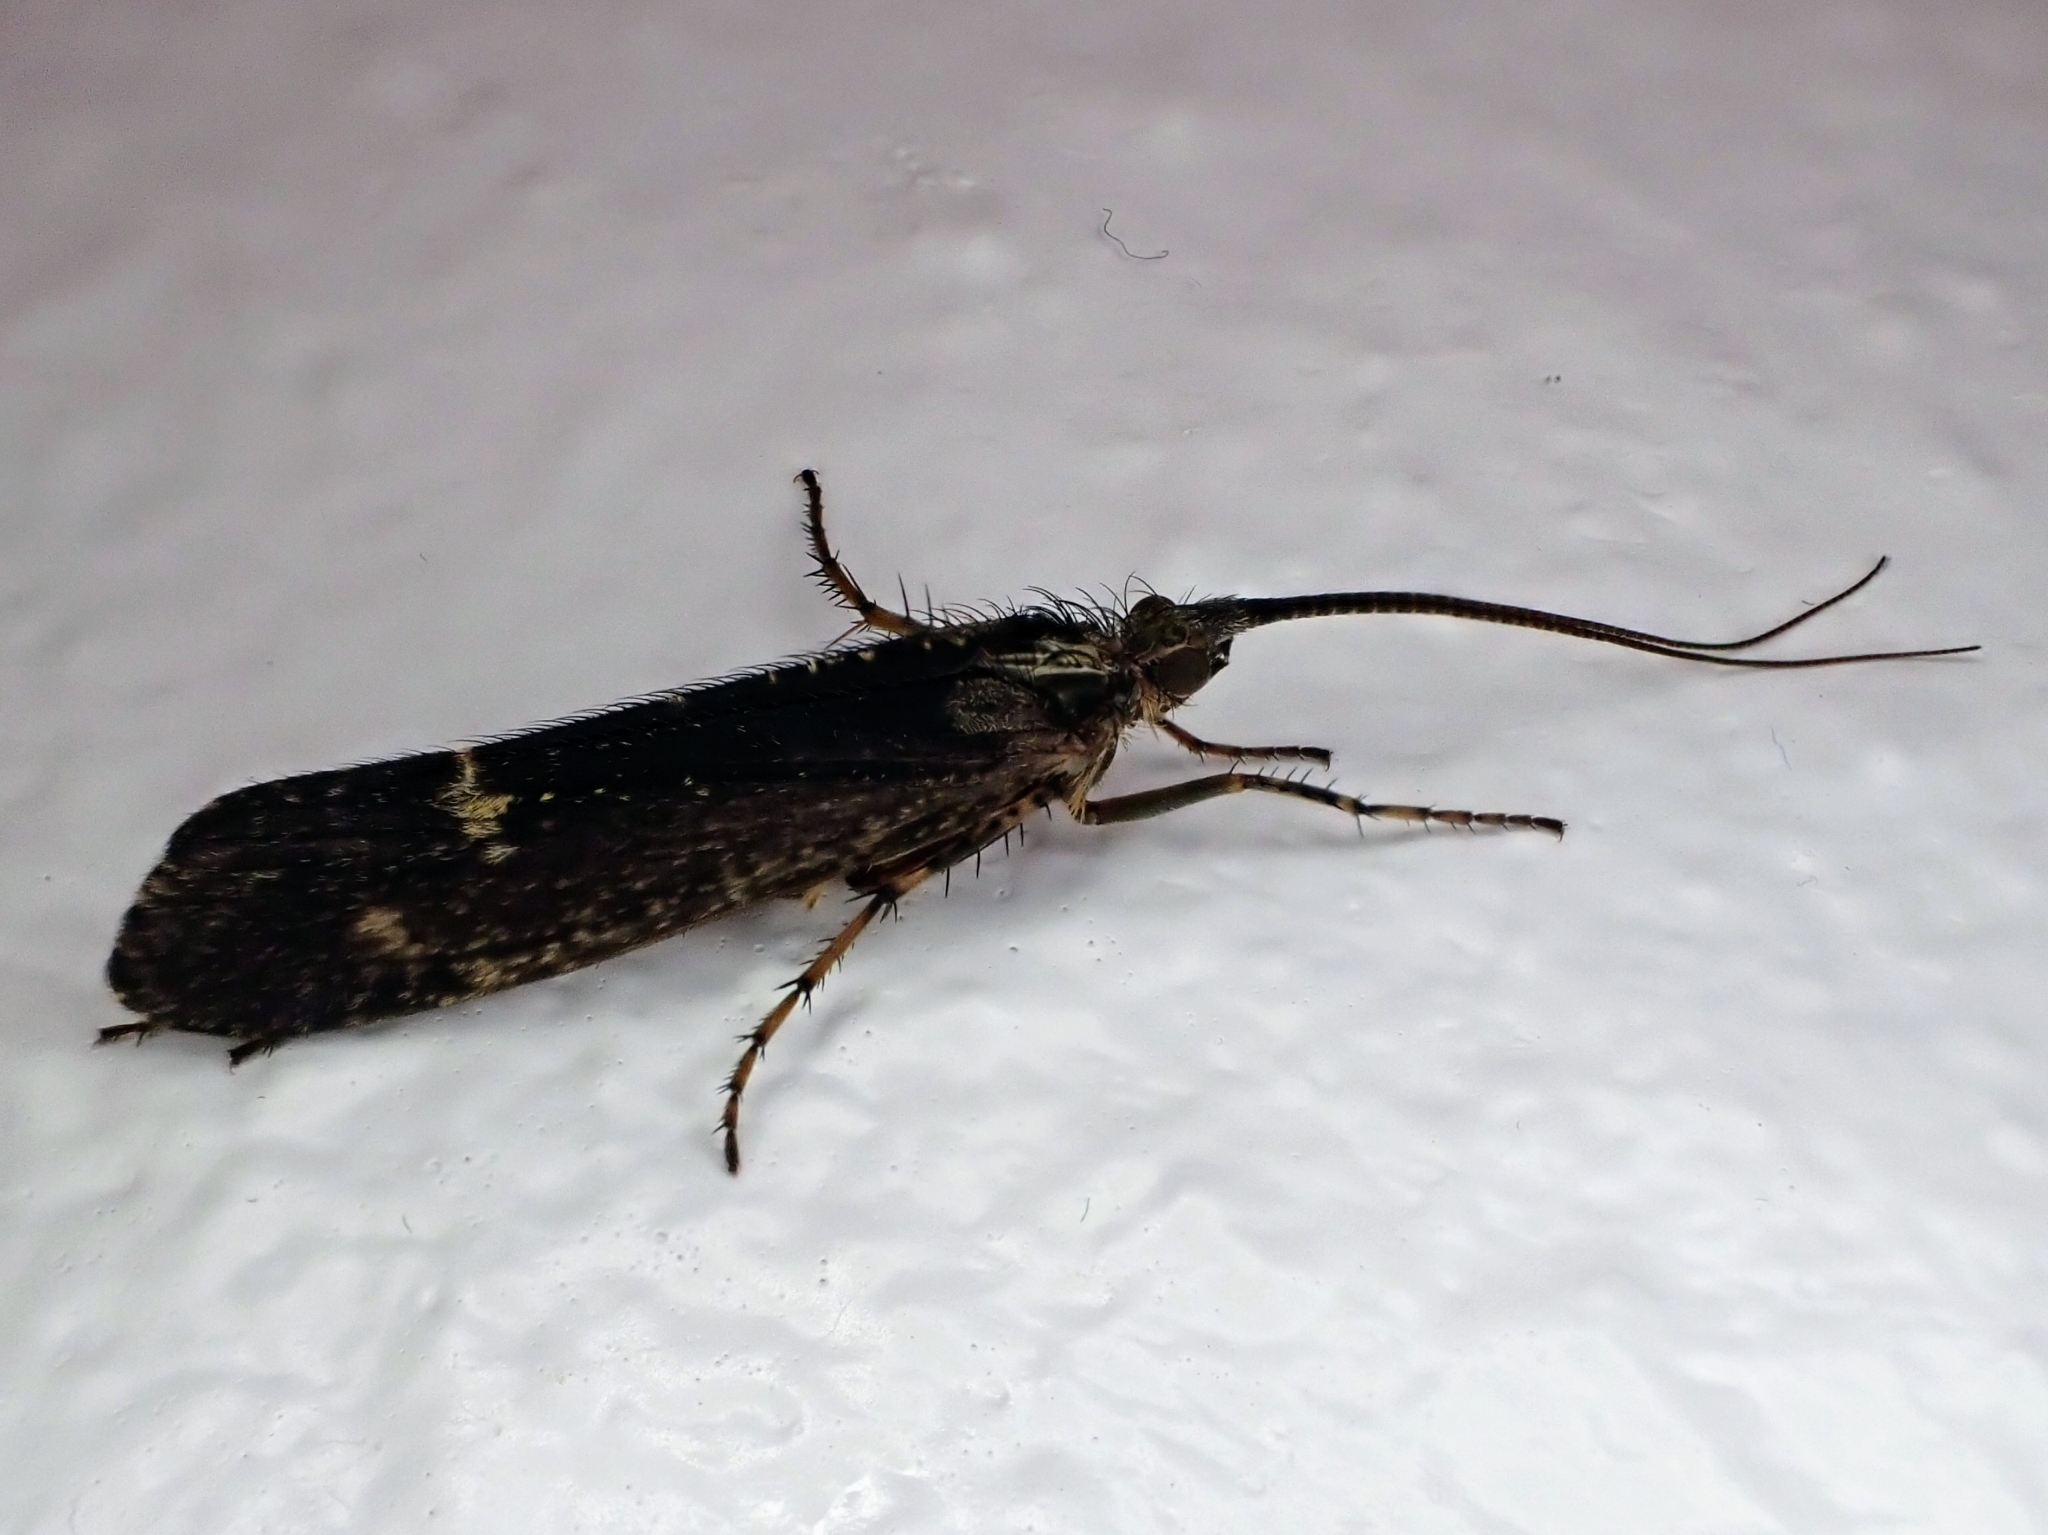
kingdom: Animalia
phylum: Arthropoda
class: Insecta
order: Trichoptera
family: Limnephilidae
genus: Limnephilus
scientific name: Limnephilus sparsus
